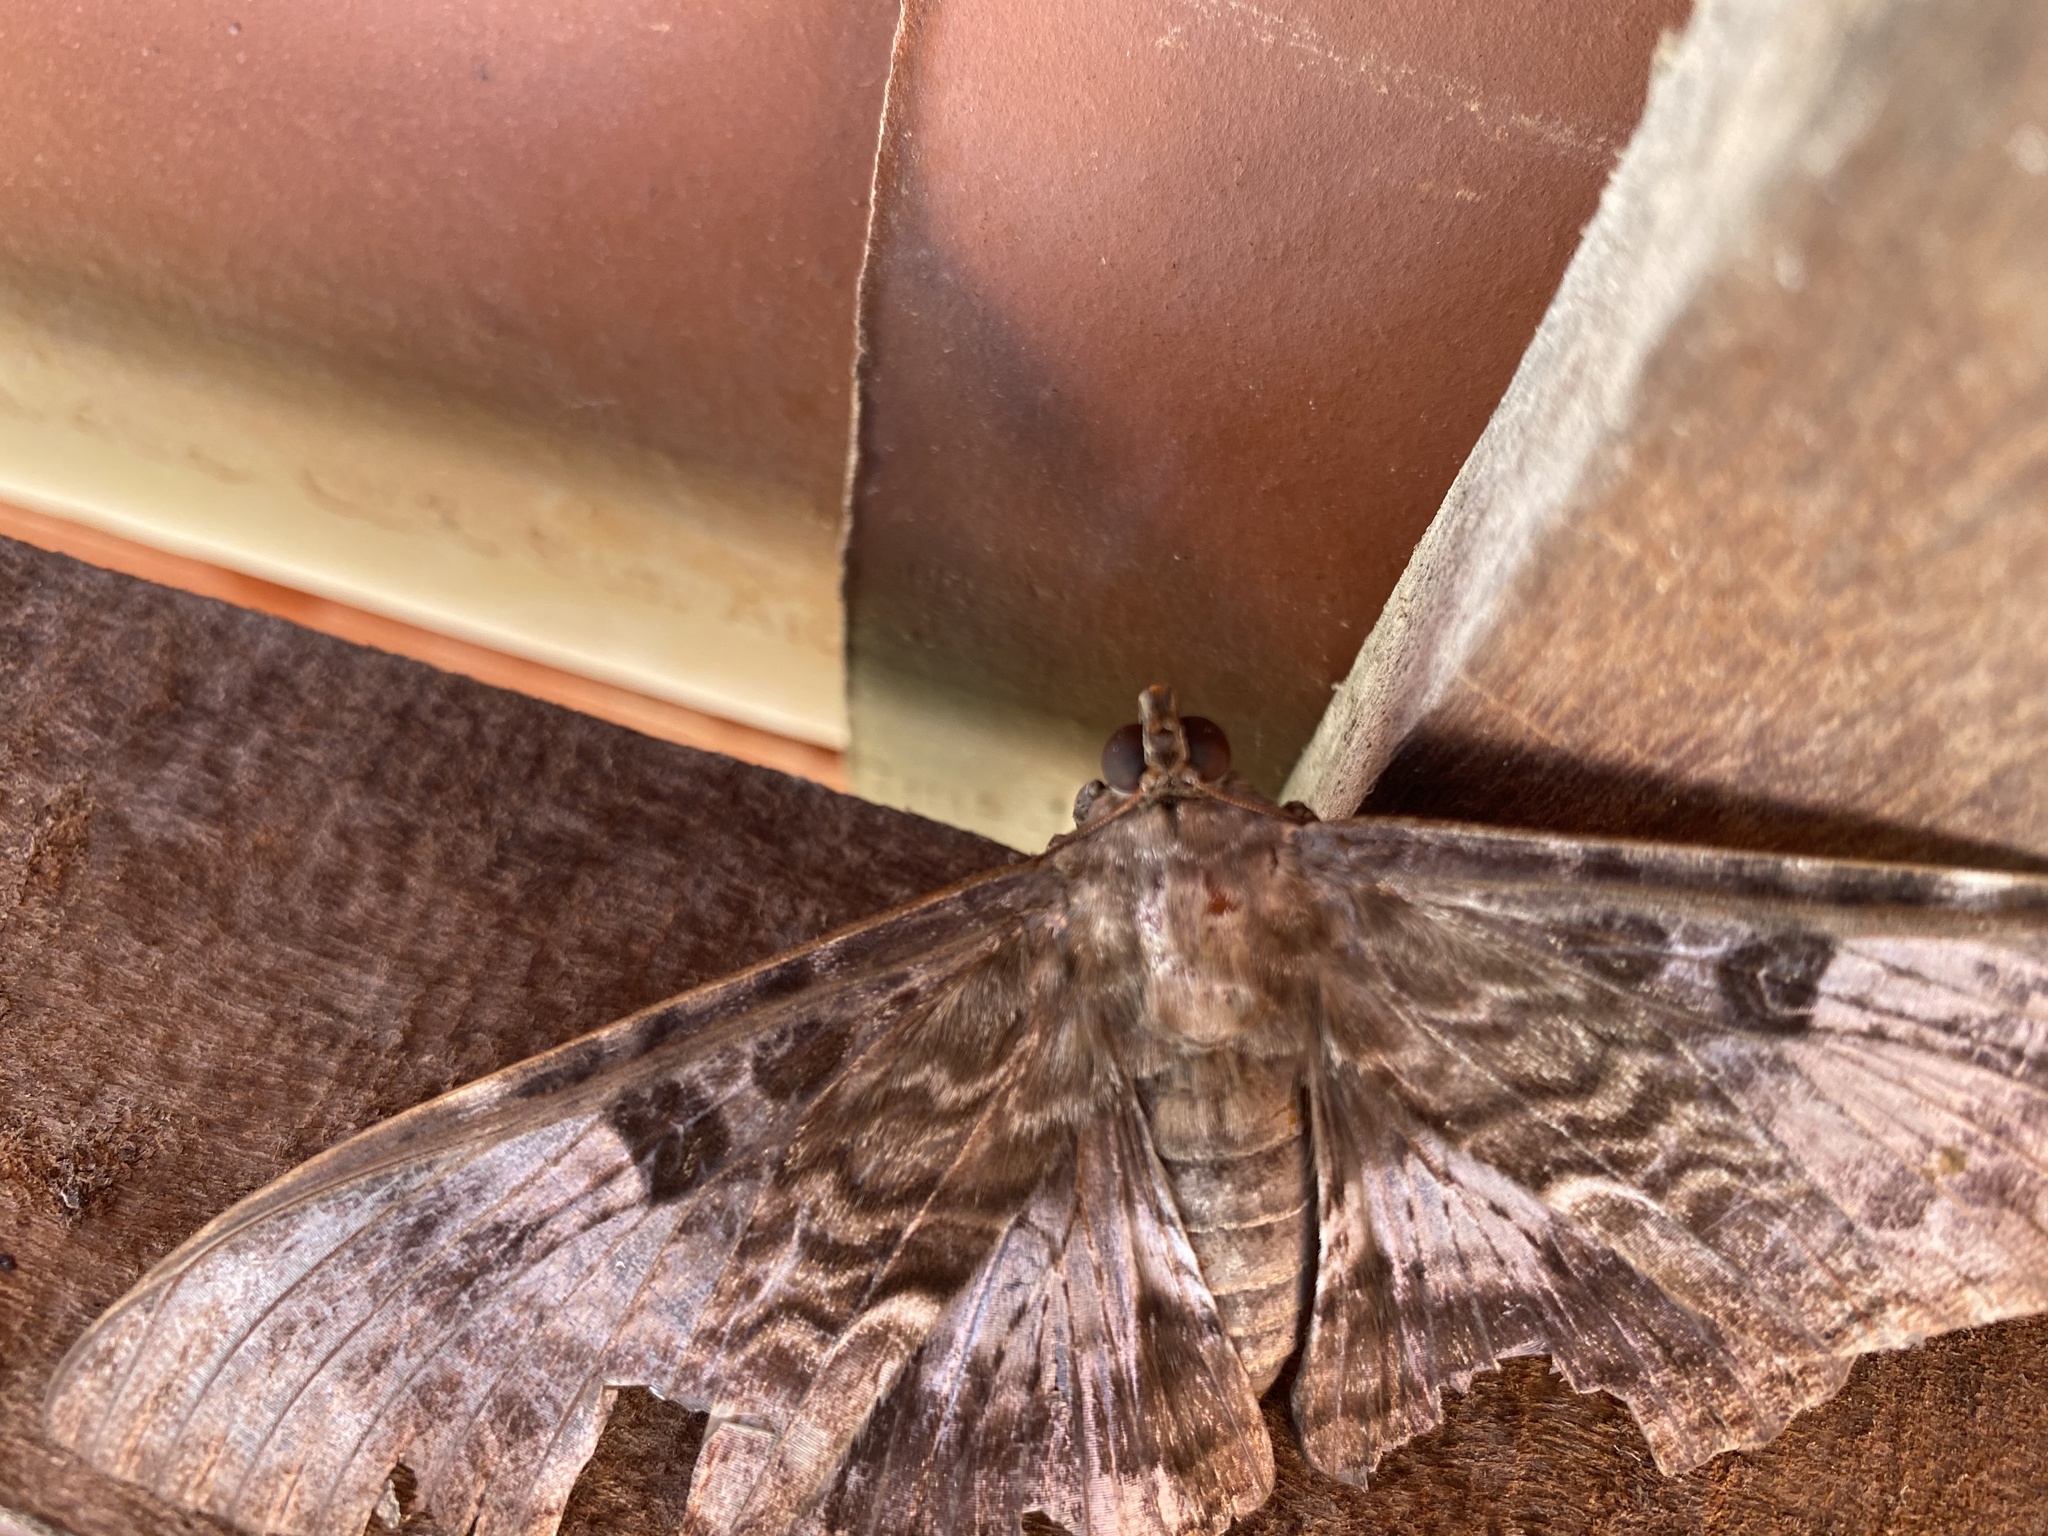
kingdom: Animalia
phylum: Arthropoda
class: Insecta
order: Lepidoptera
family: Erebidae
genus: Letis
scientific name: Letis specularis
